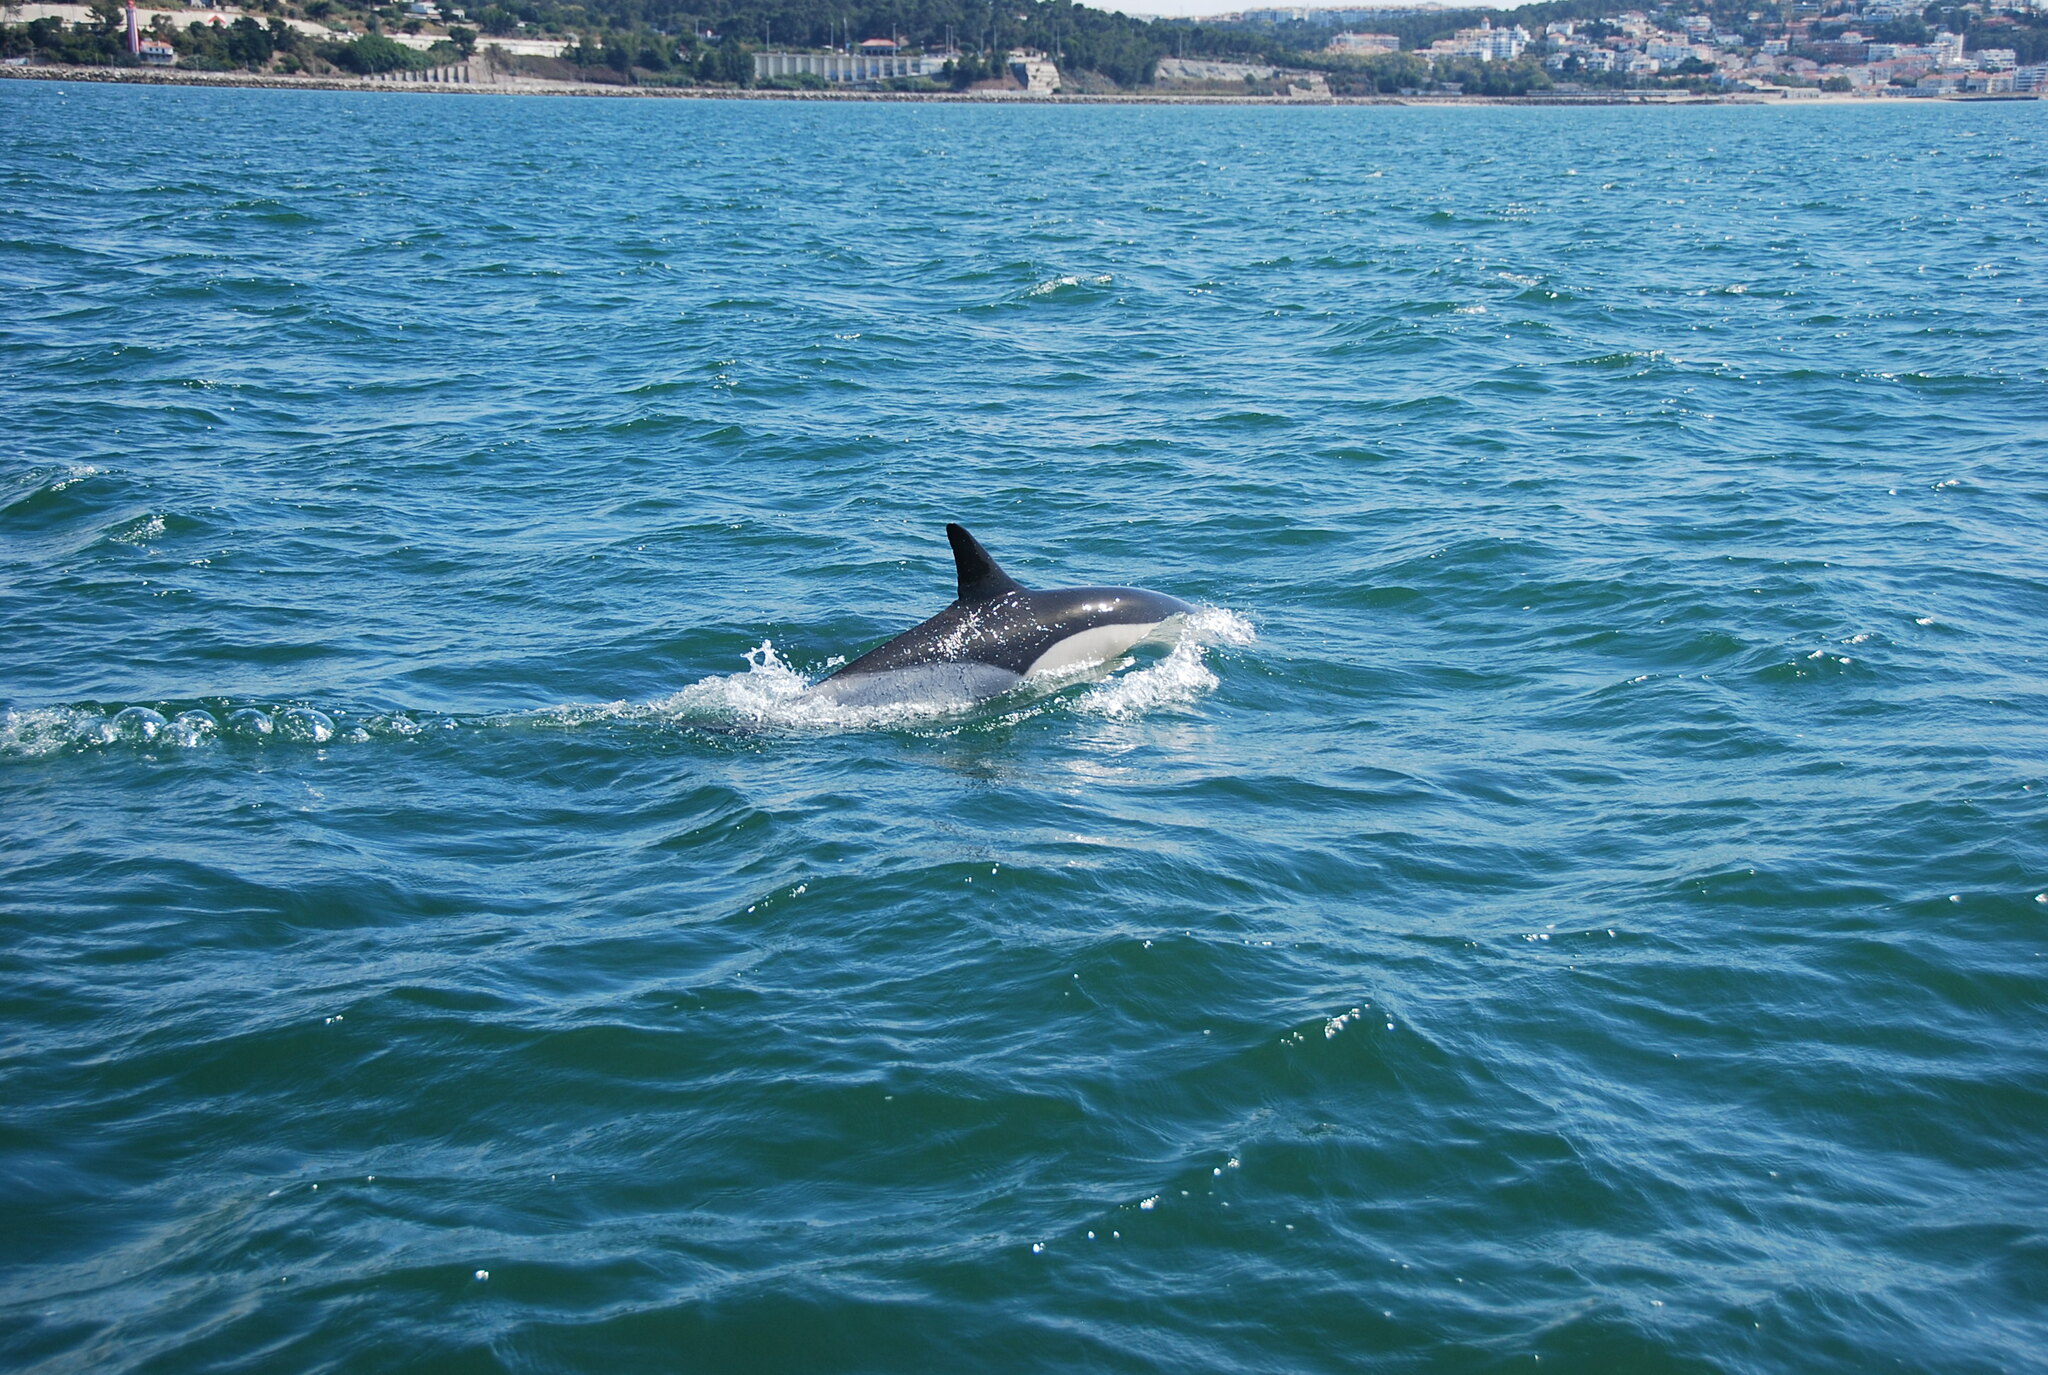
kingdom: Animalia
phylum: Chordata
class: Mammalia
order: Cetacea
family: Delphinidae
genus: Delphinus
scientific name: Delphinus delphis
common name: Common dolphin
